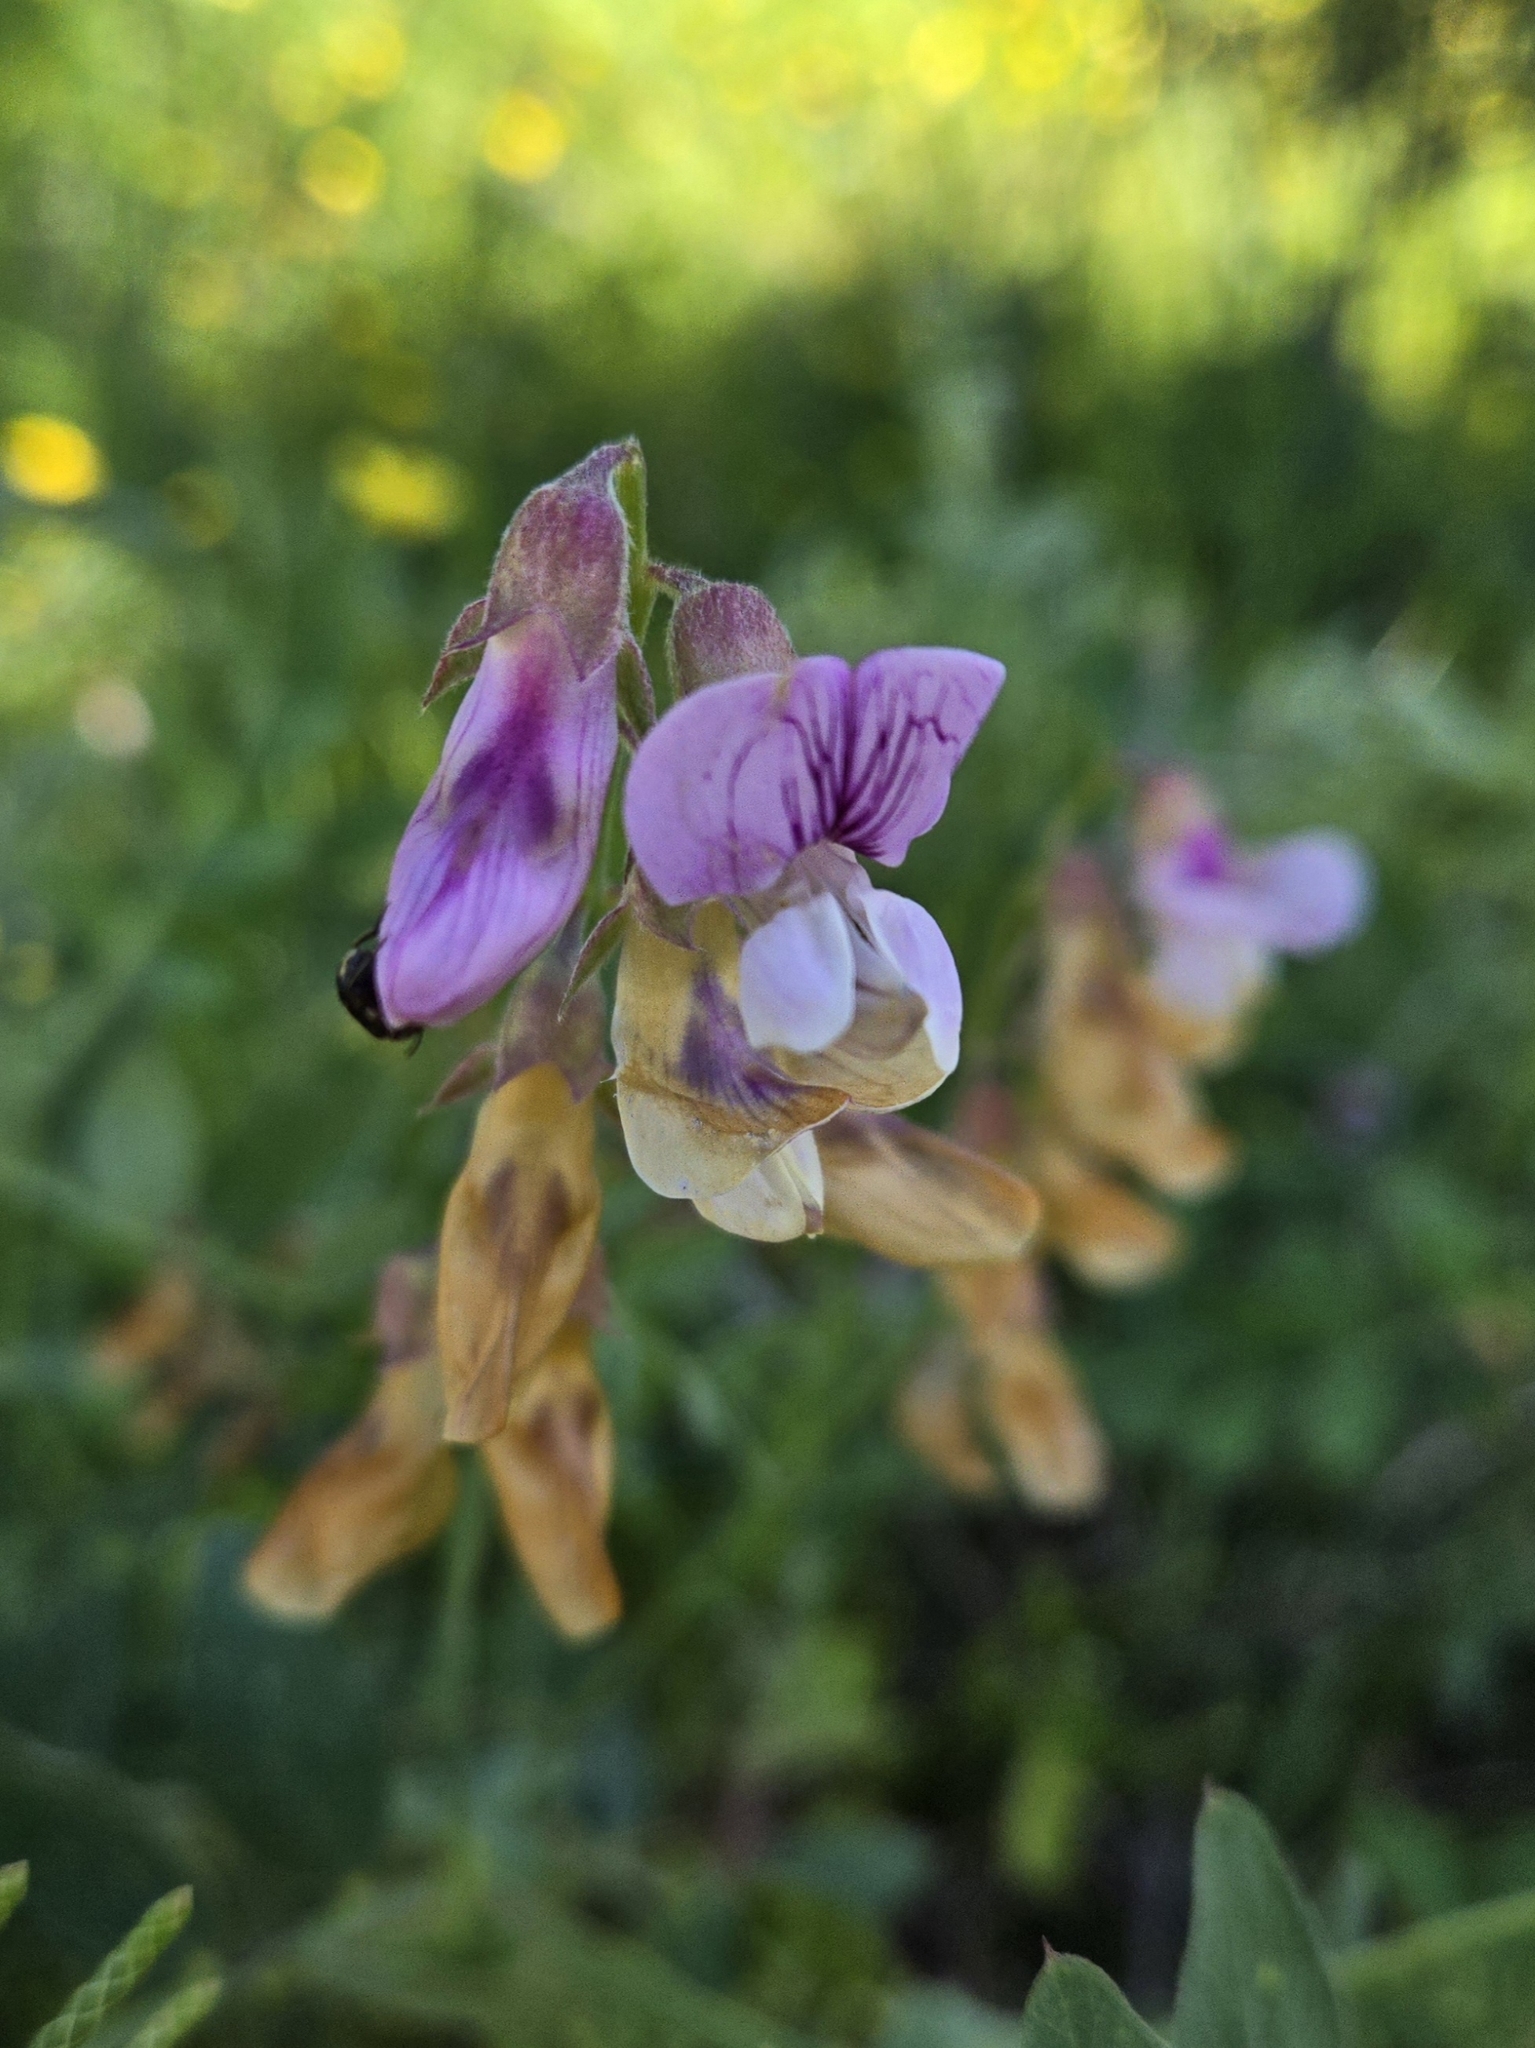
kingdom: Plantae
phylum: Tracheophyta
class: Magnoliopsida
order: Fabales
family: Fabaceae
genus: Lathyrus
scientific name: Lathyrus vestitus
